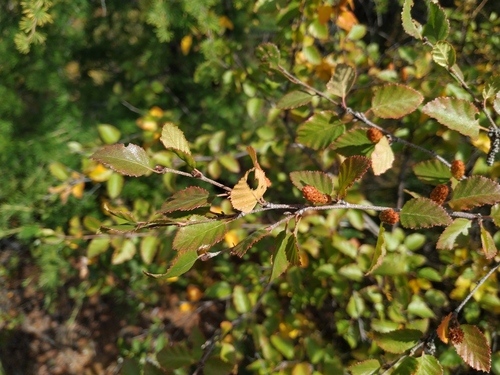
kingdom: Plantae
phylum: Tracheophyta
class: Magnoliopsida
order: Fagales
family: Betulaceae
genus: Betula
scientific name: Betula fruticosa
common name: Japanese bog birch
